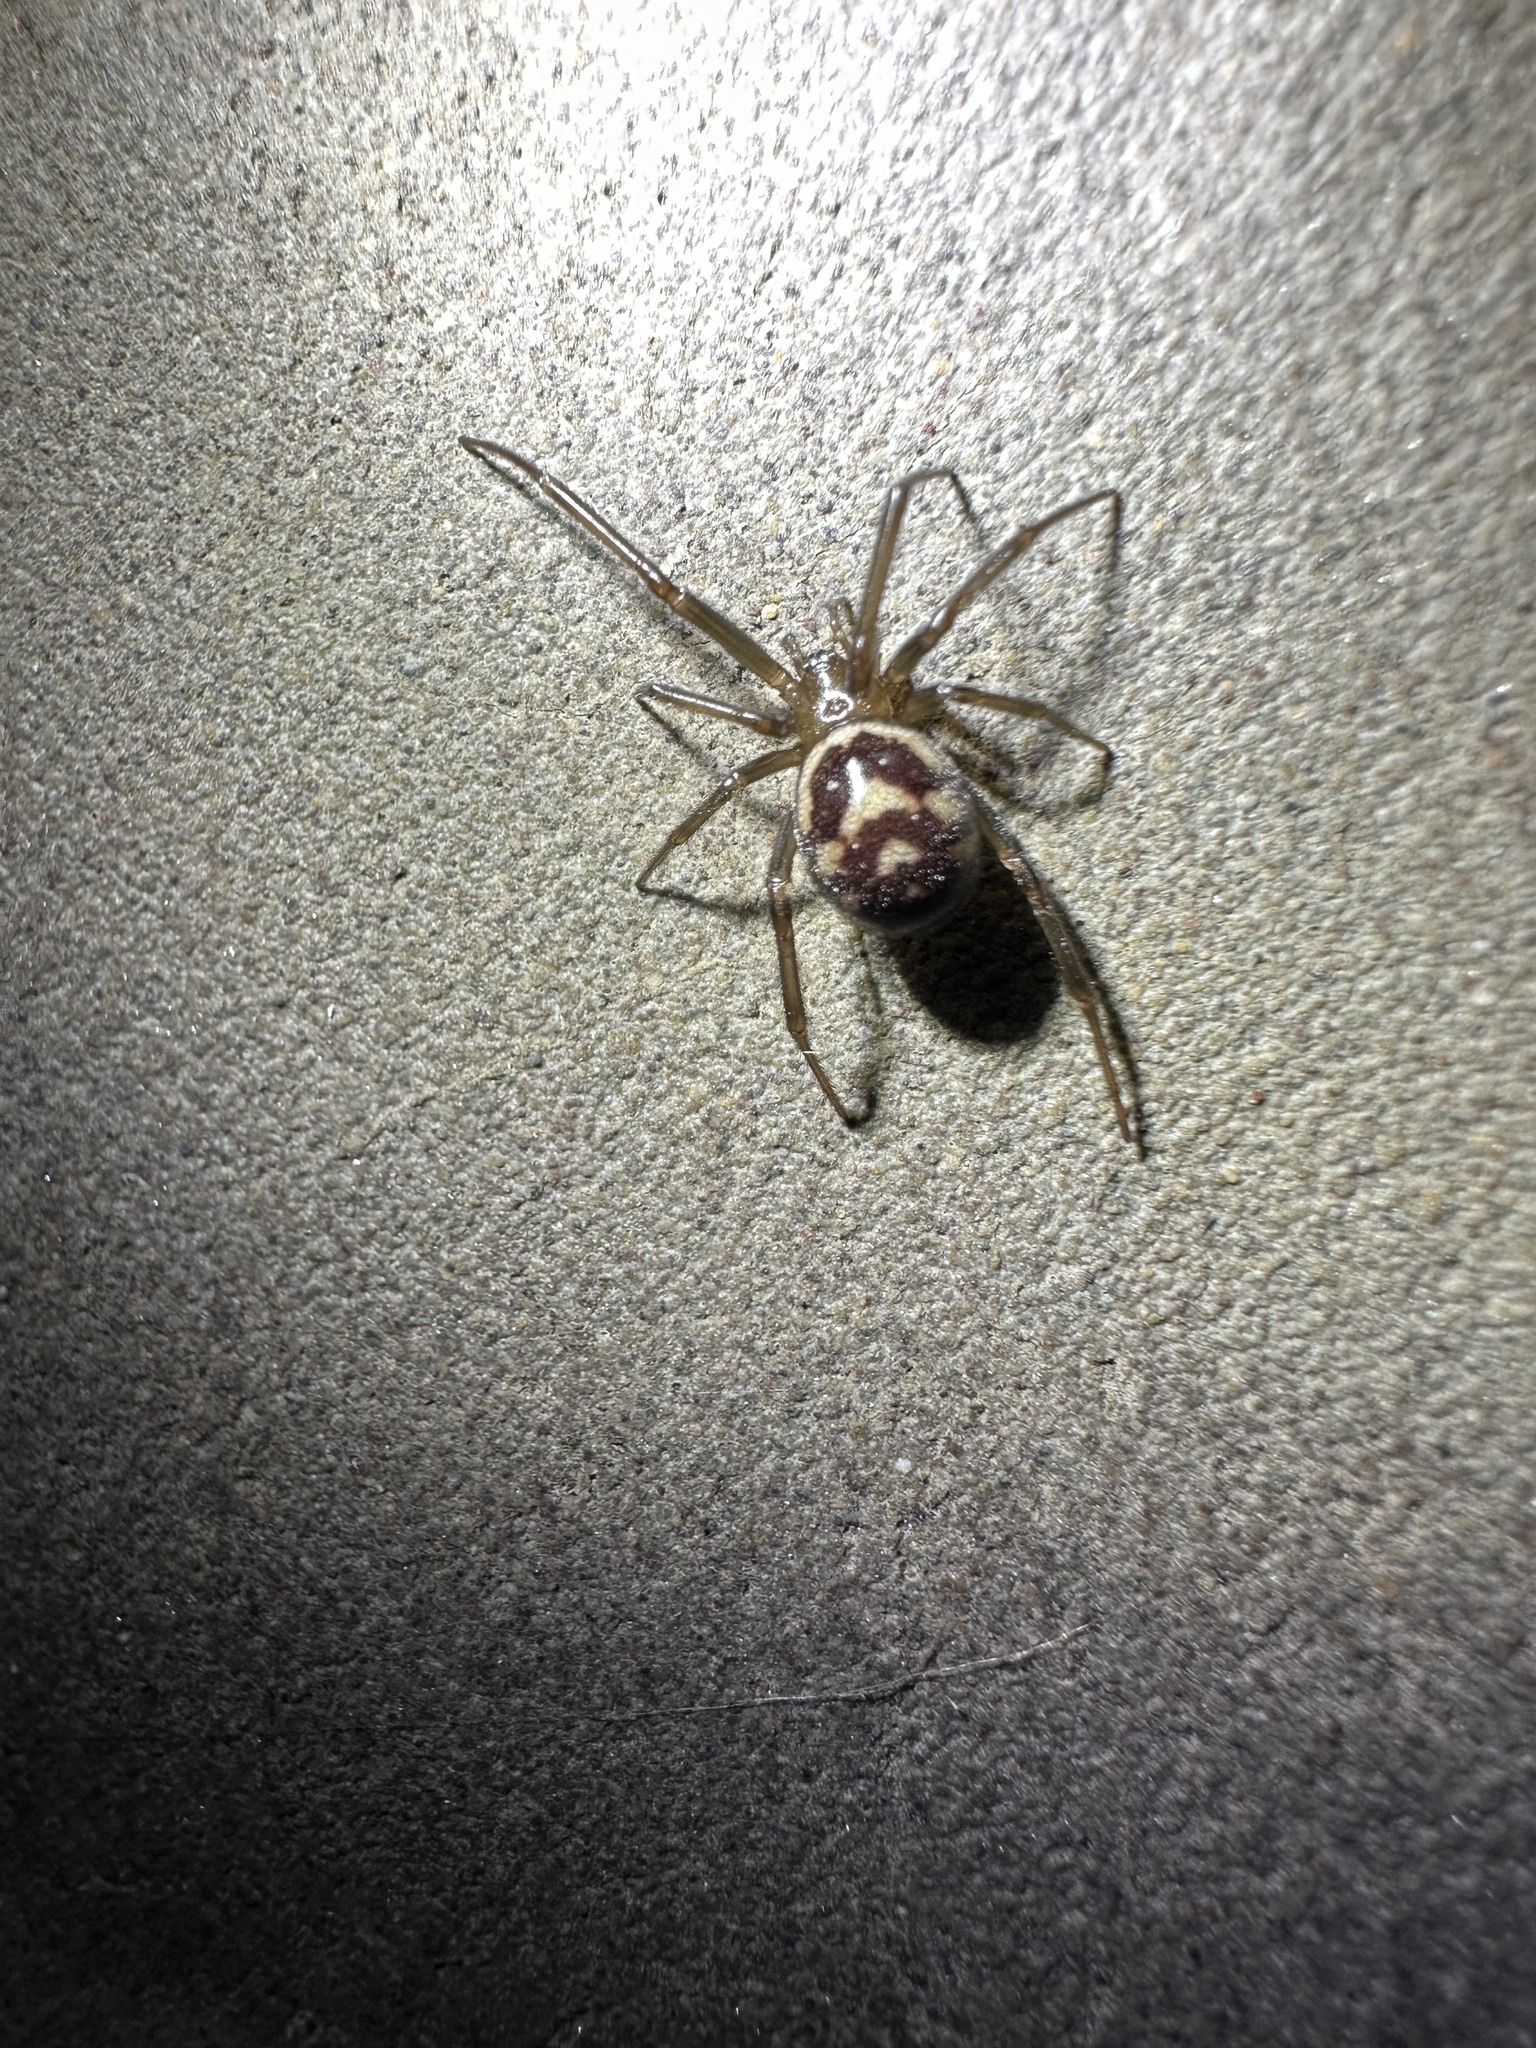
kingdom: Animalia
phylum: Arthropoda
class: Arachnida
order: Araneae
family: Theridiidae
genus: Steatoda
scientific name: Steatoda grossa
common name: False black widow
